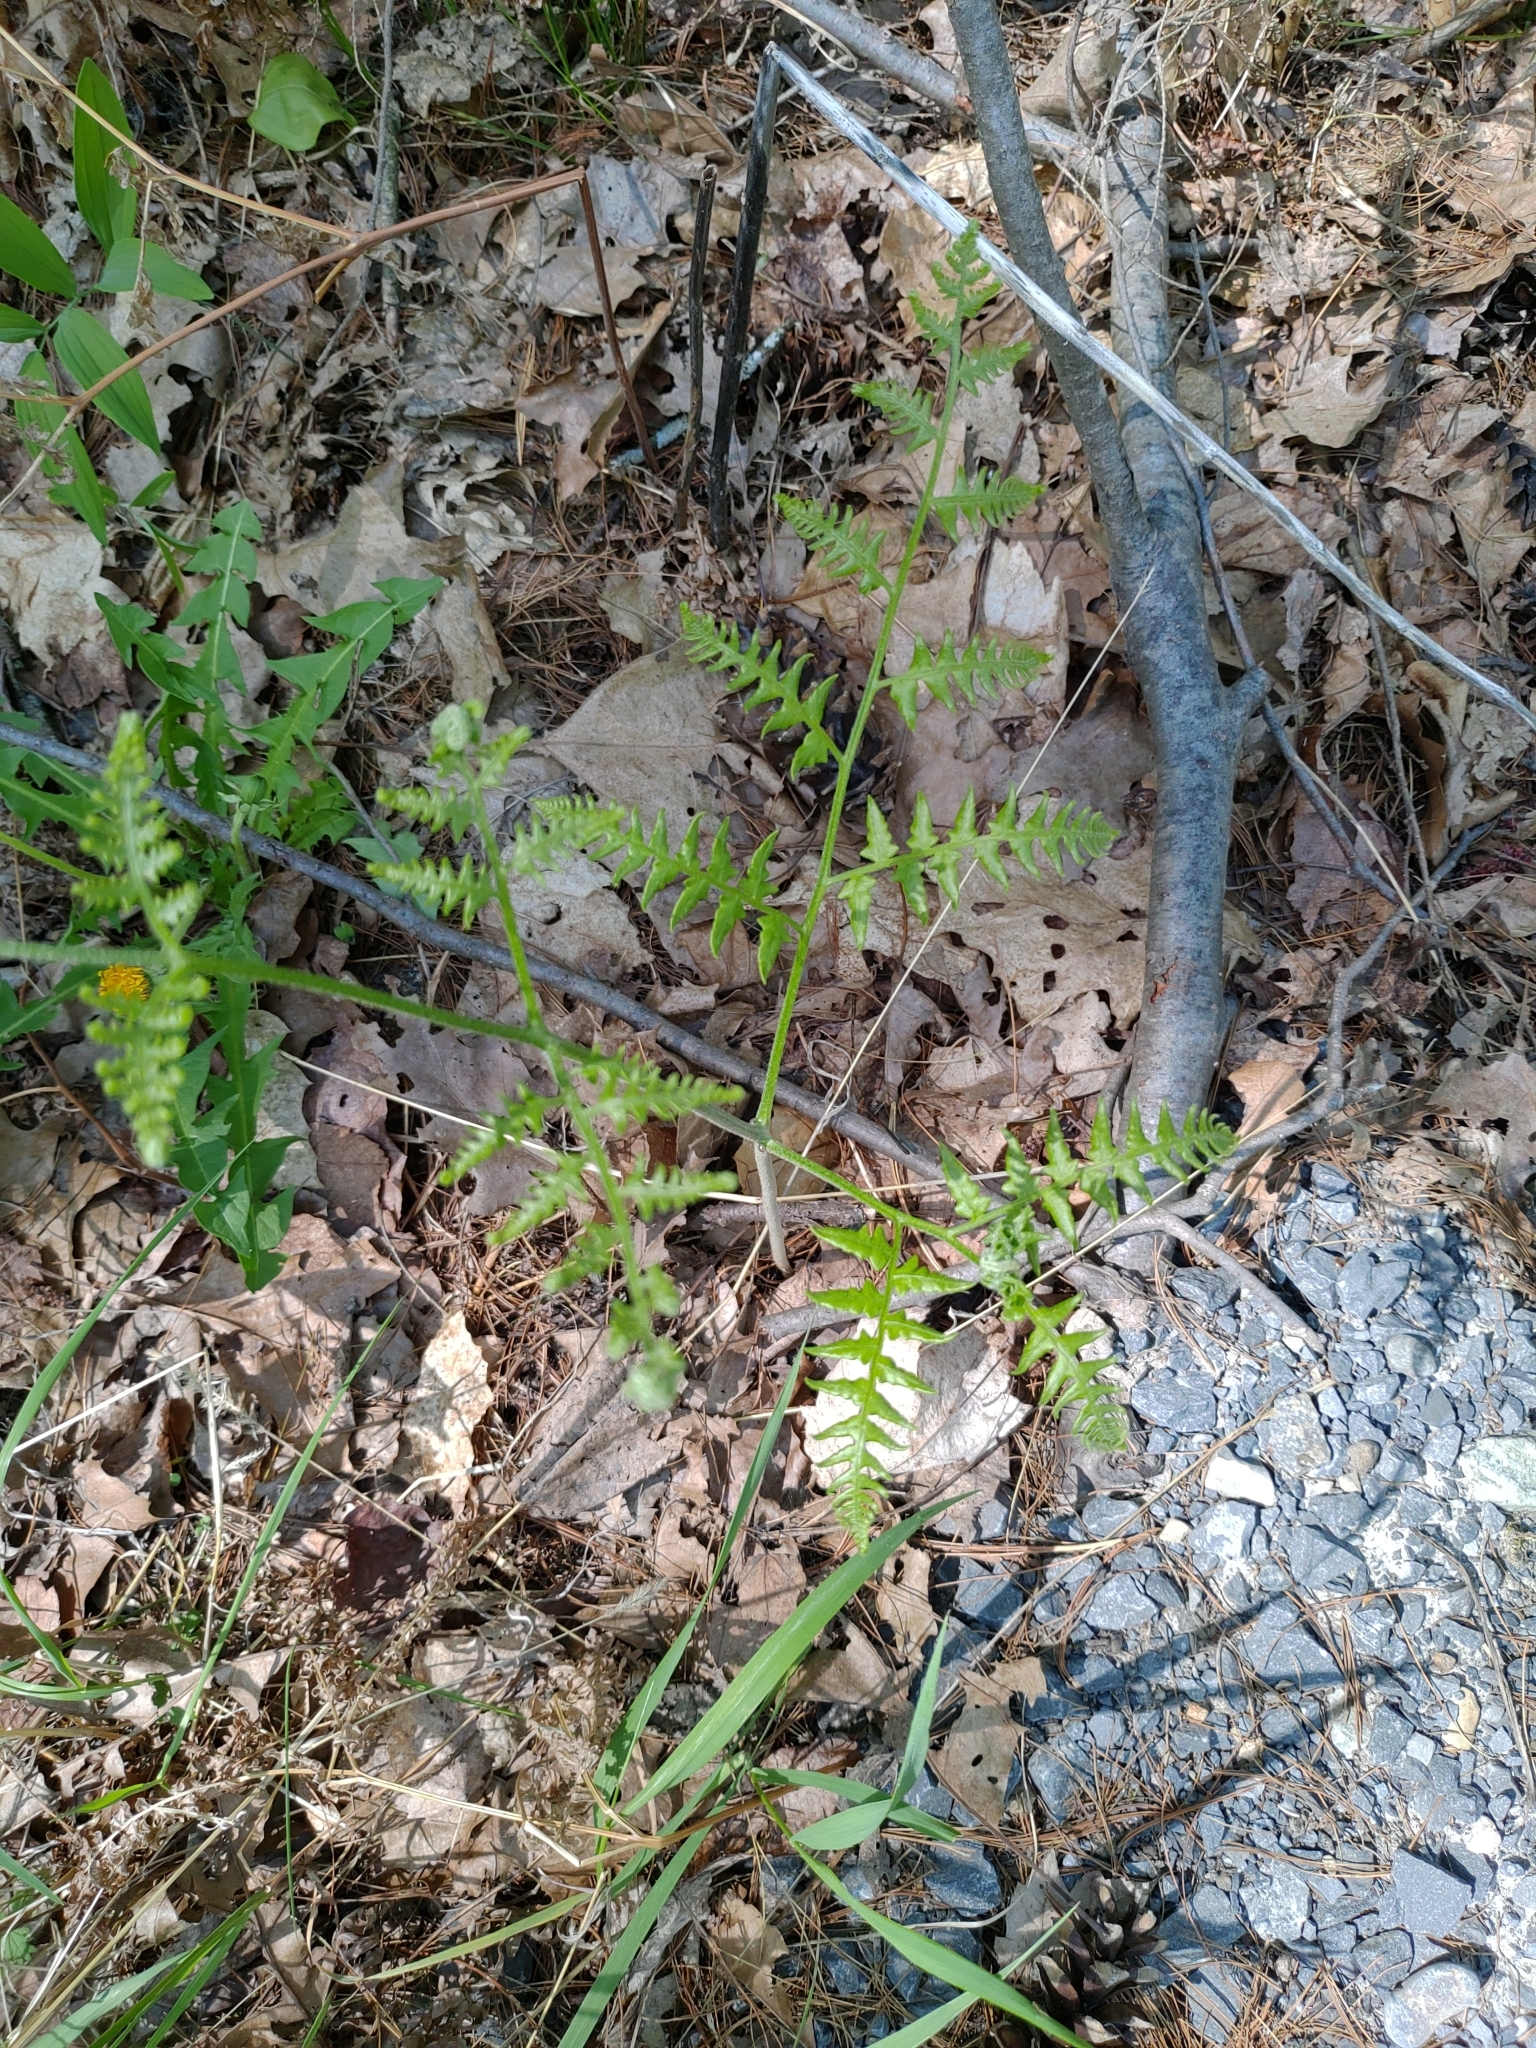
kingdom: Plantae
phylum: Tracheophyta
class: Polypodiopsida
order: Polypodiales
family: Dennstaedtiaceae
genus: Pteridium
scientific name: Pteridium aquilinum
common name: Bracken
